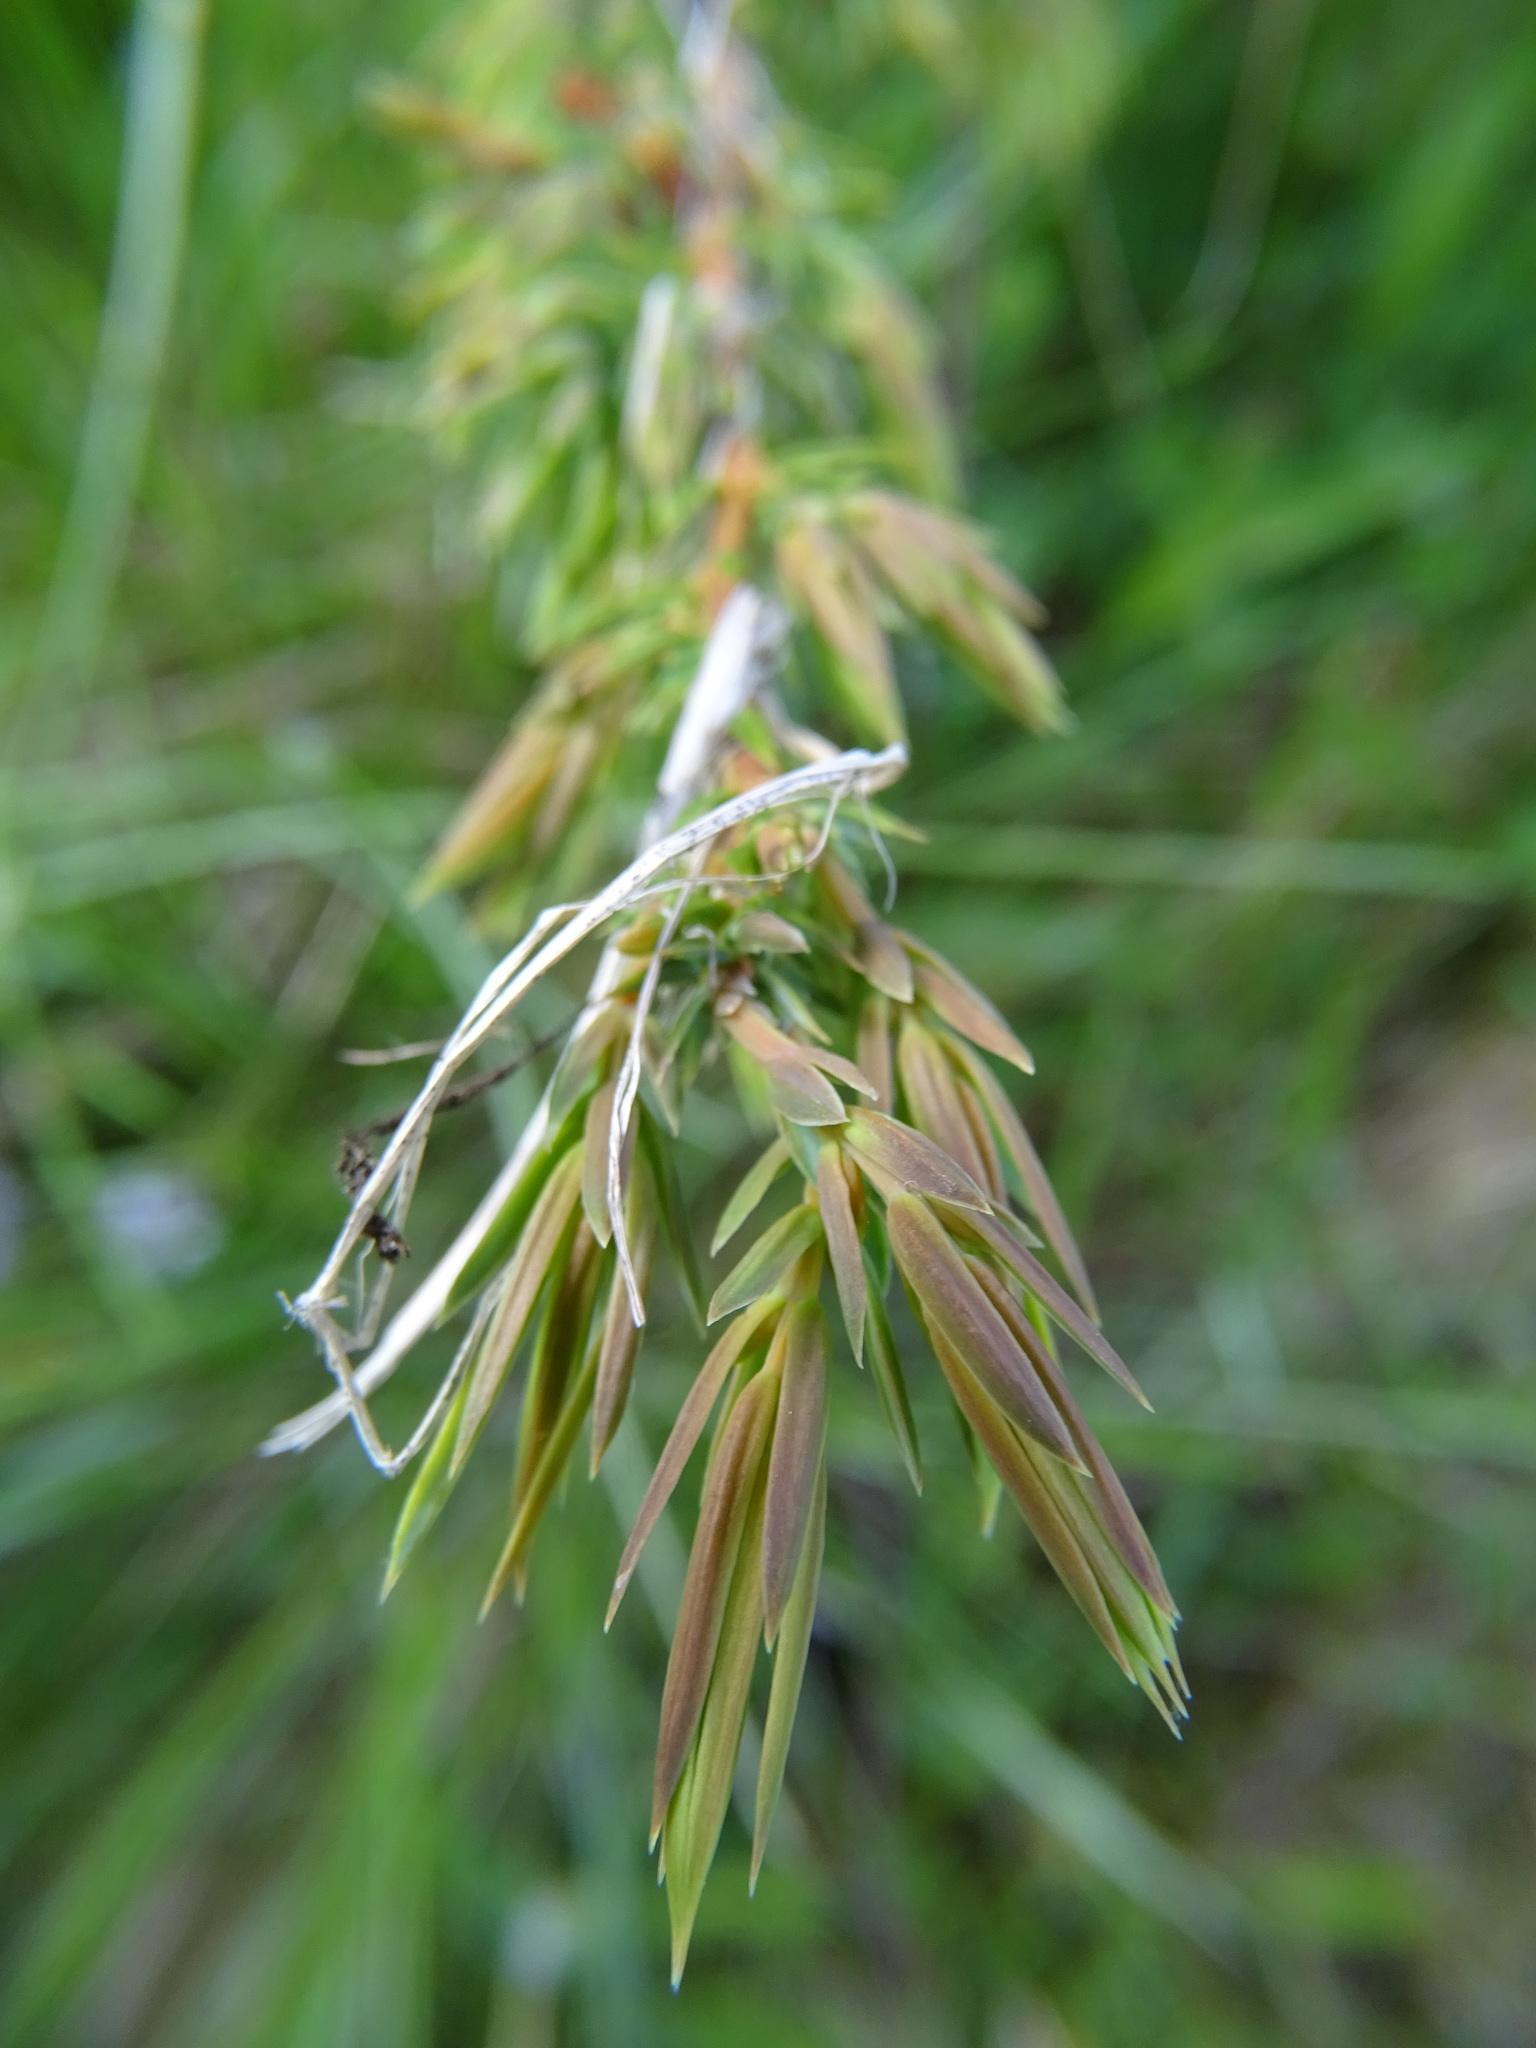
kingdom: Plantae
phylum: Tracheophyta
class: Pinopsida
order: Pinales
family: Cupressaceae
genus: Juniperus
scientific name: Juniperus communis
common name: Common juniper
